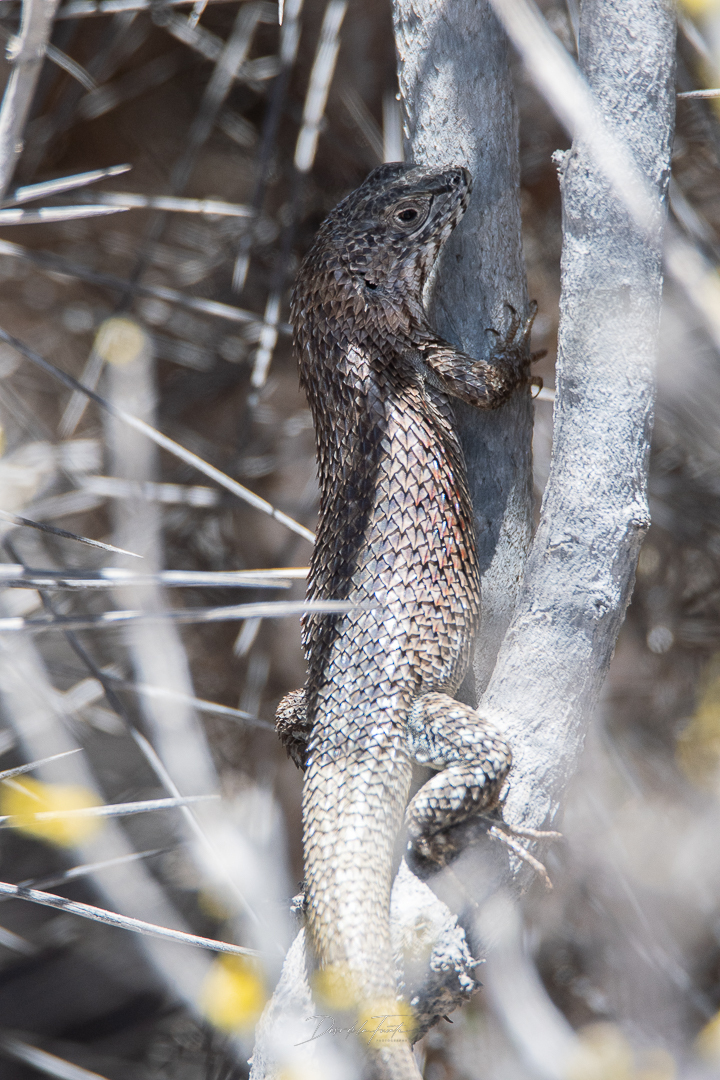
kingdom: Animalia
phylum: Chordata
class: Squamata
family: Liolaemidae
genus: Liolaemus
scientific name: Liolaemus nitidus
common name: Shining tree iguana
